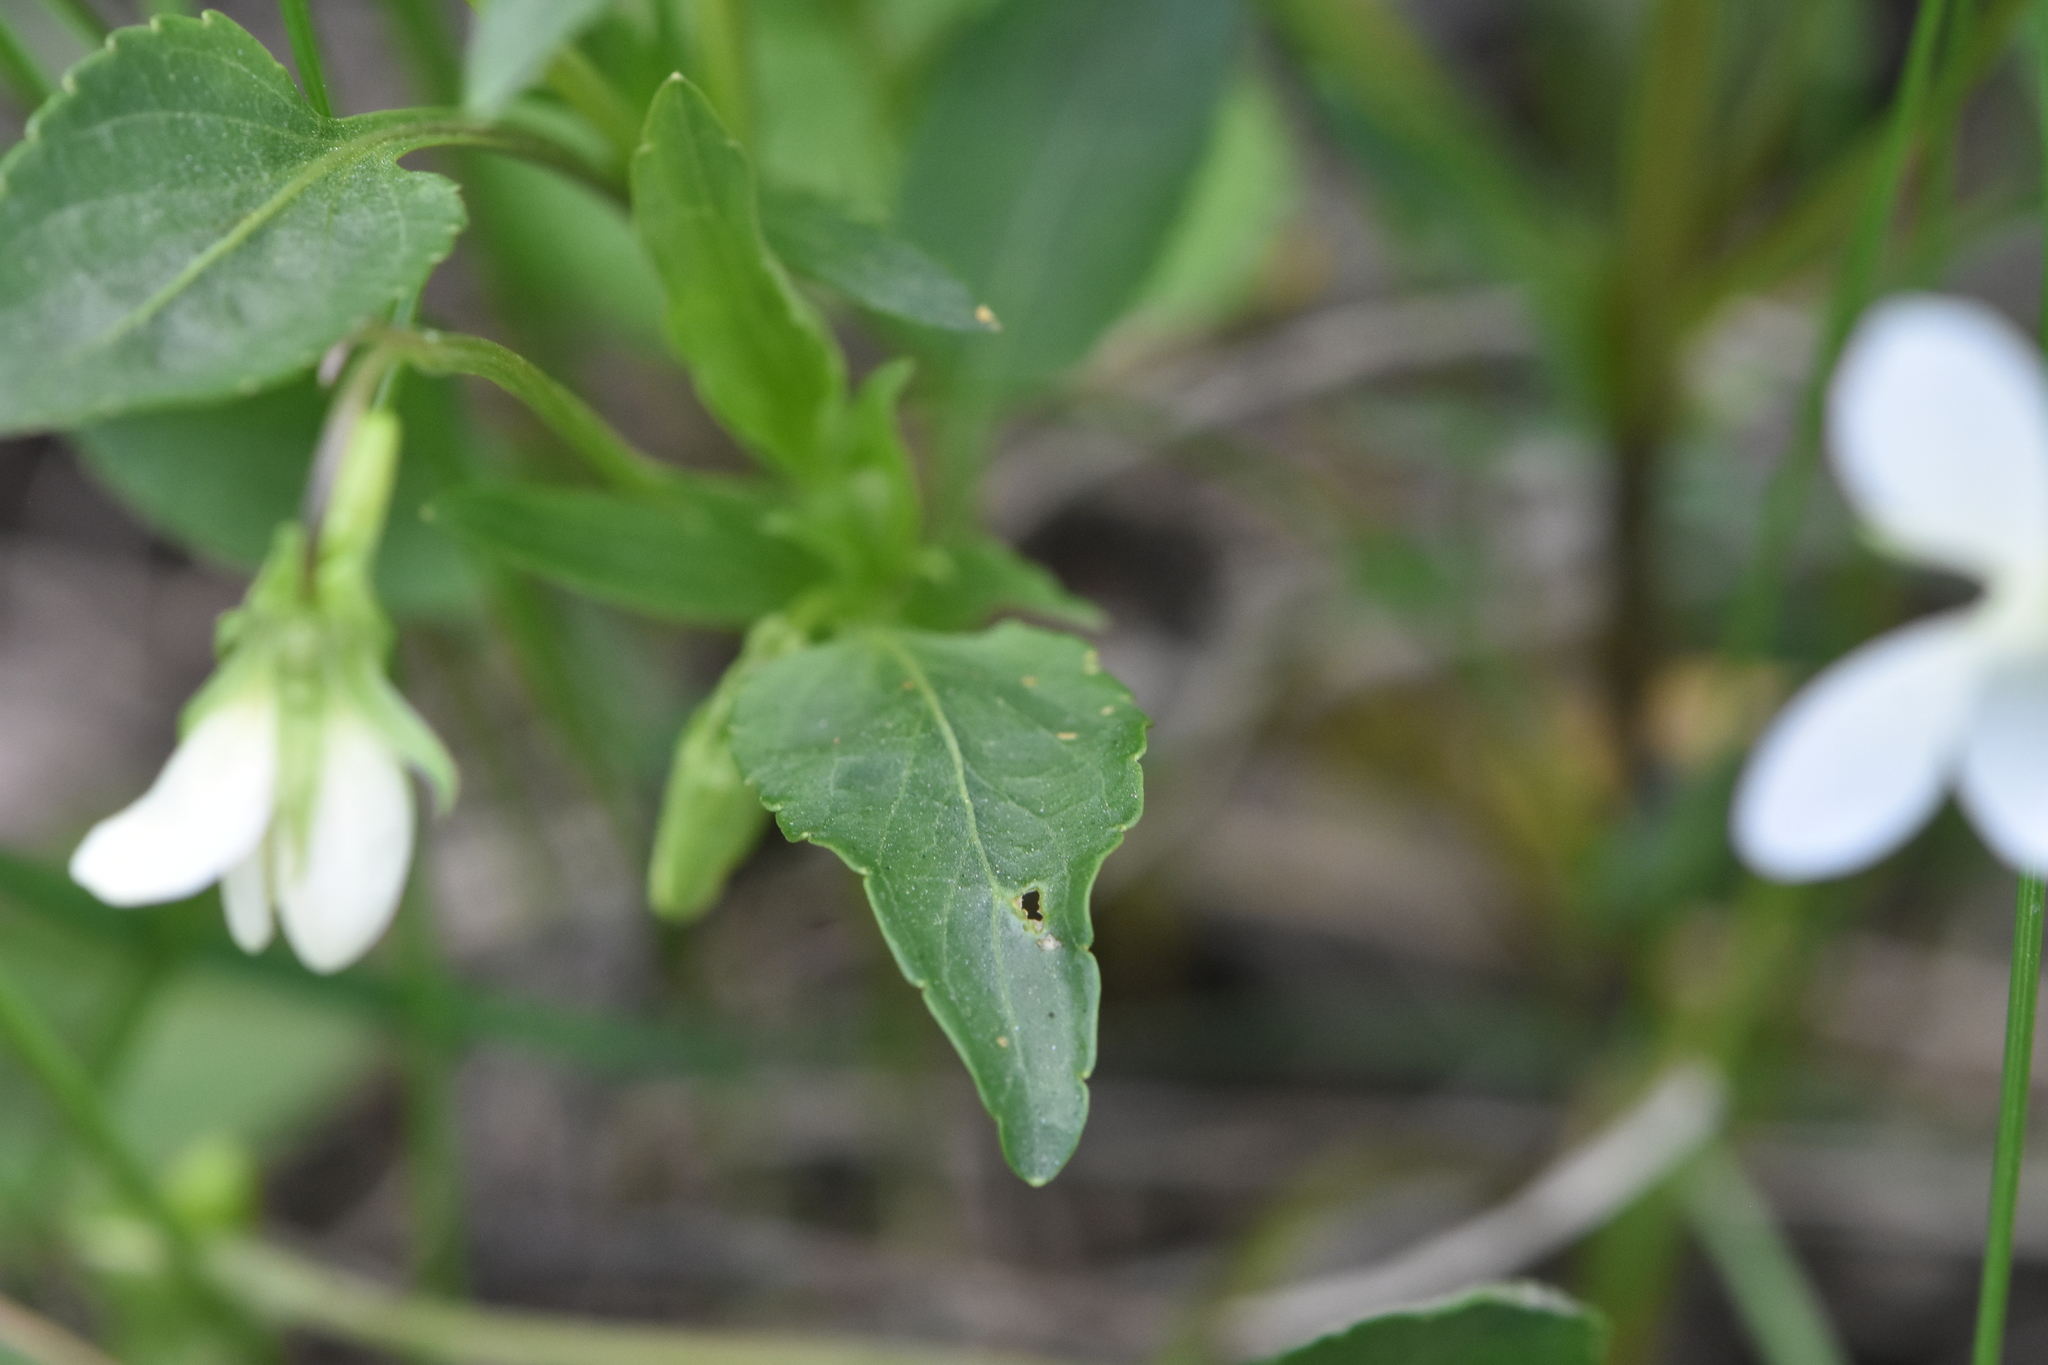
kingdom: Plantae
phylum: Tracheophyta
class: Magnoliopsida
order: Malpighiales
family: Violaceae
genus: Viola
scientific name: Viola pumila
